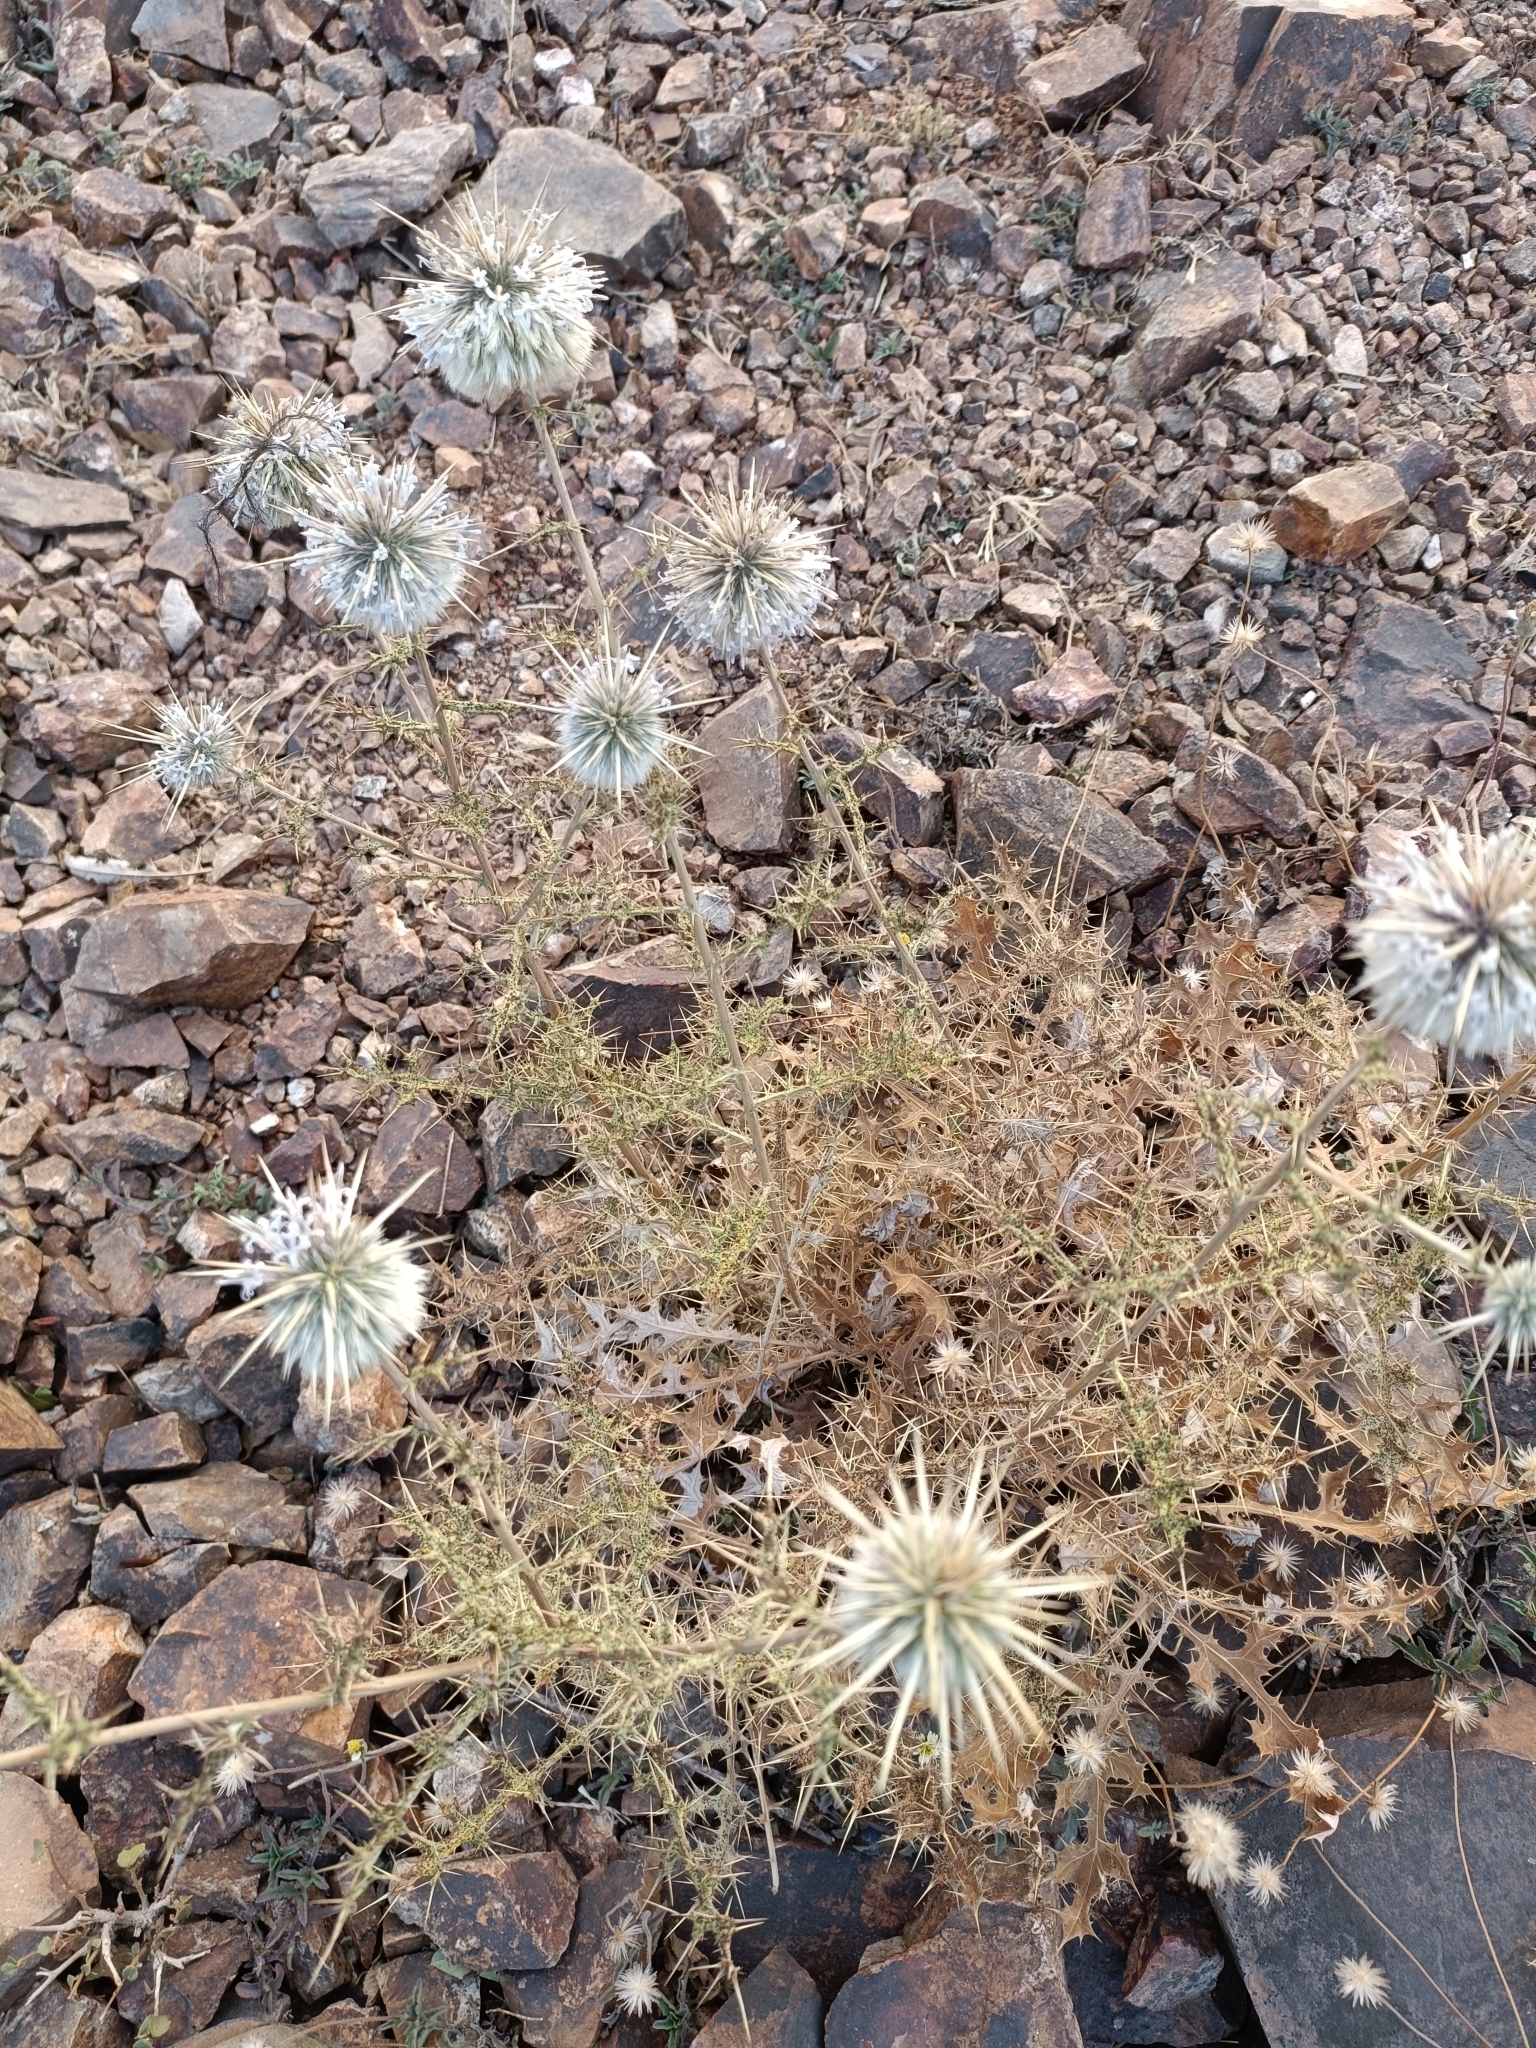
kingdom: Plantae
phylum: Tracheophyta
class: Magnoliopsida
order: Asterales
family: Asteraceae
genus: Echinops
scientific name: Echinops echinatus
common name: Indian globe thistle
